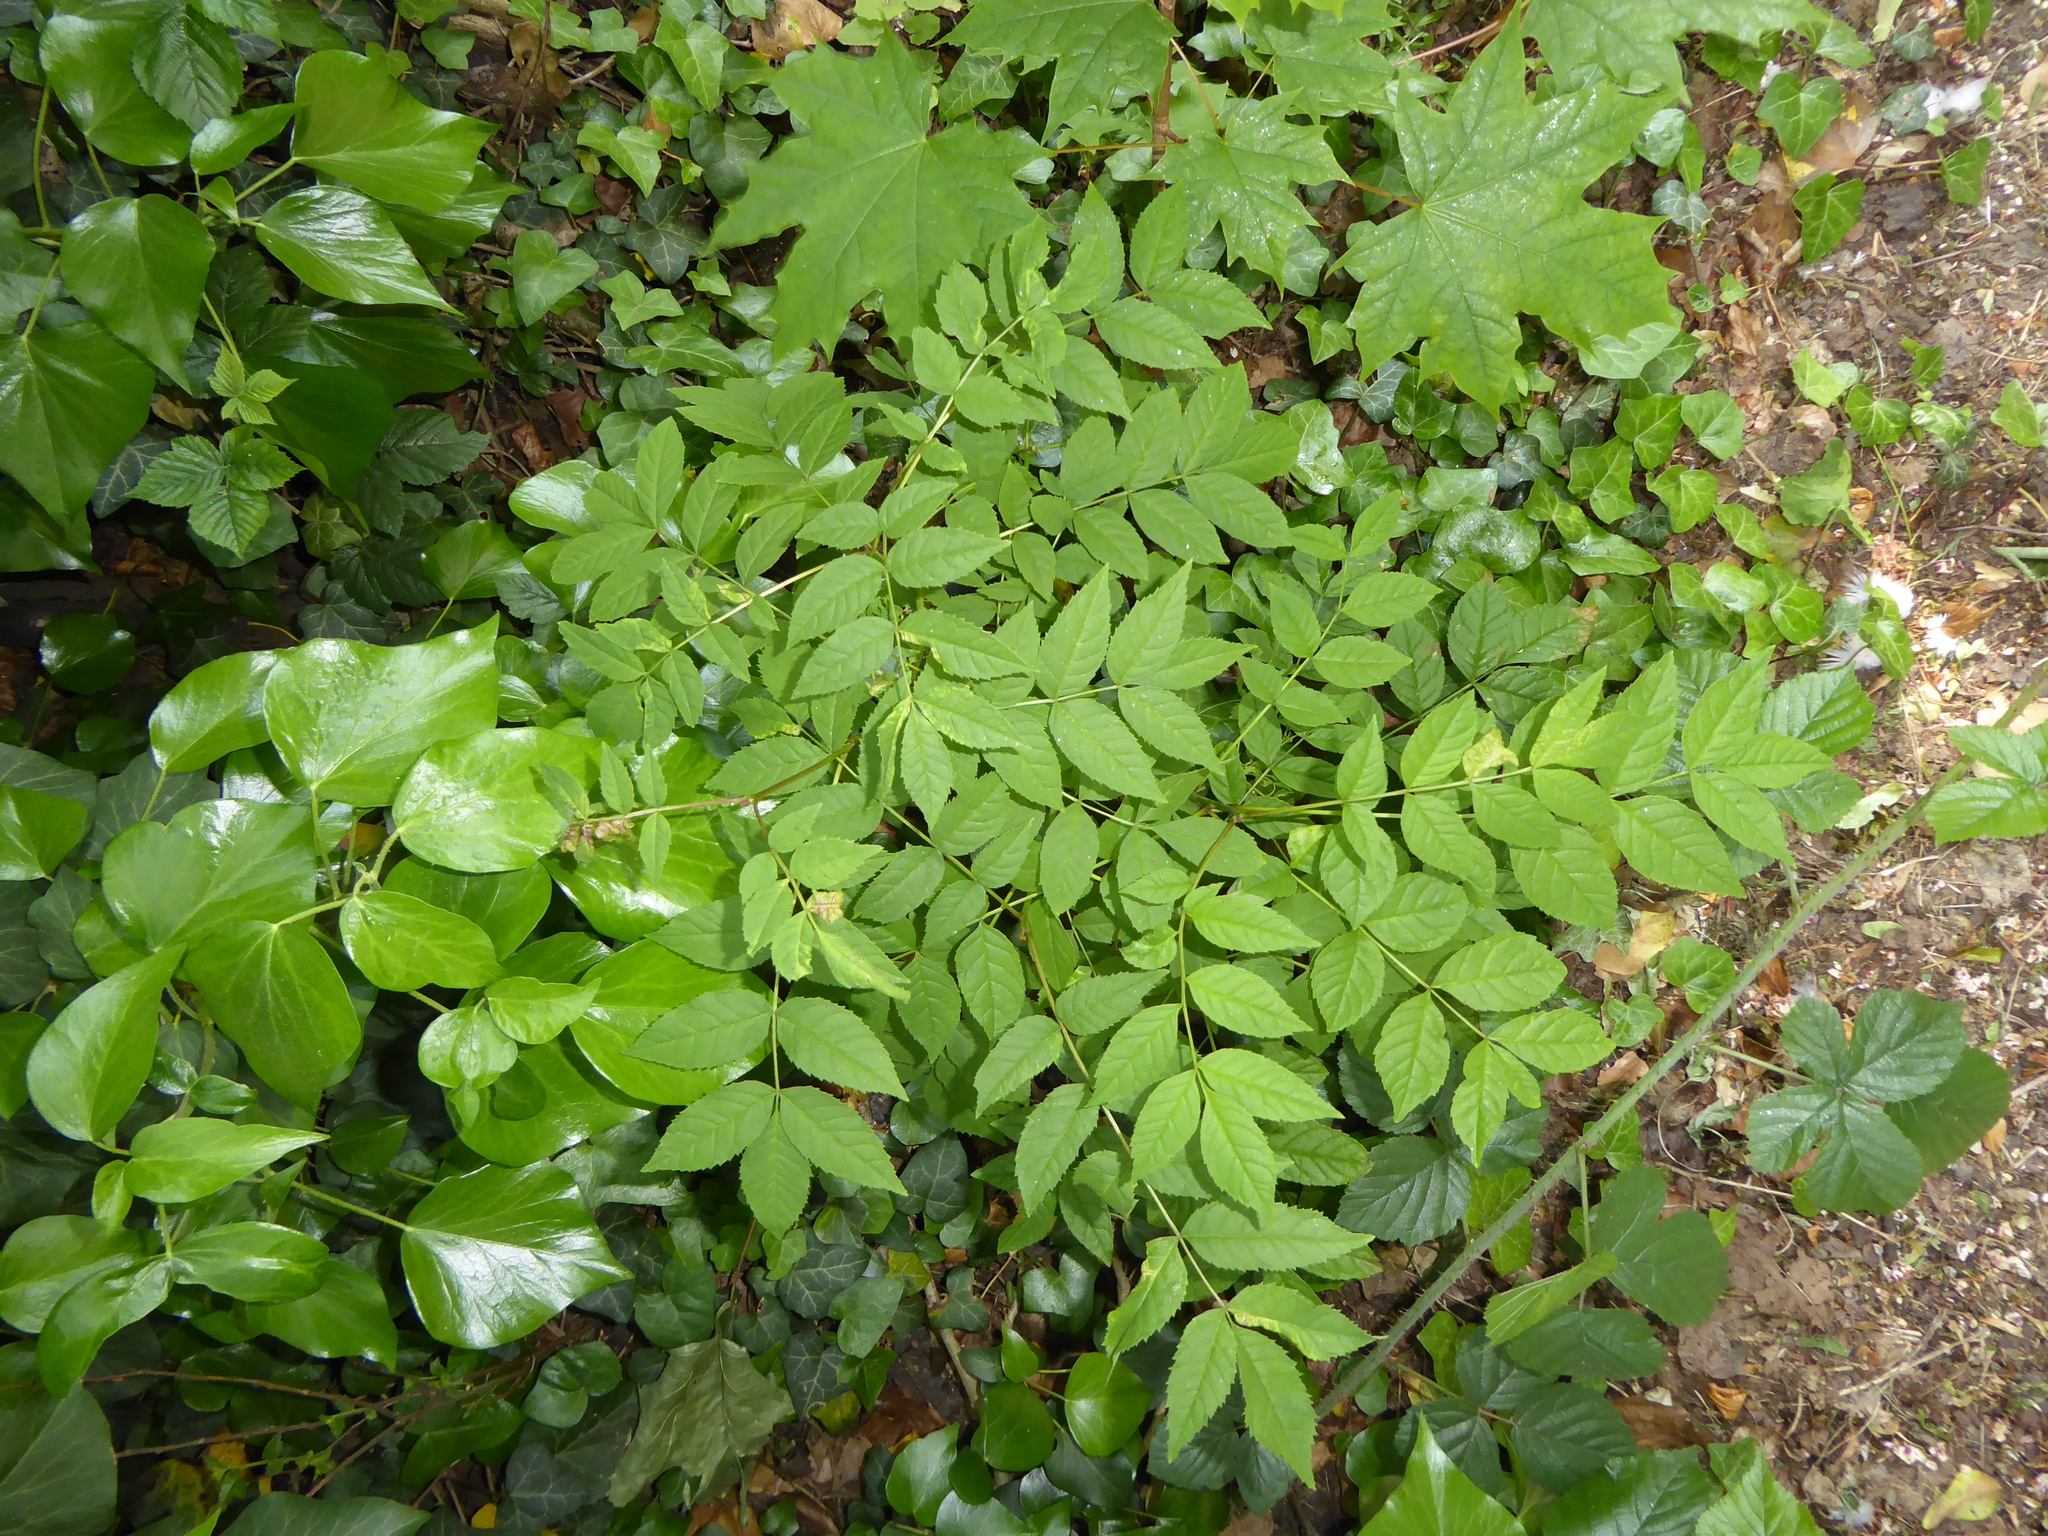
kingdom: Plantae
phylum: Tracheophyta
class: Magnoliopsida
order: Lamiales
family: Oleaceae
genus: Fraxinus
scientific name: Fraxinus excelsior
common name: European ash
